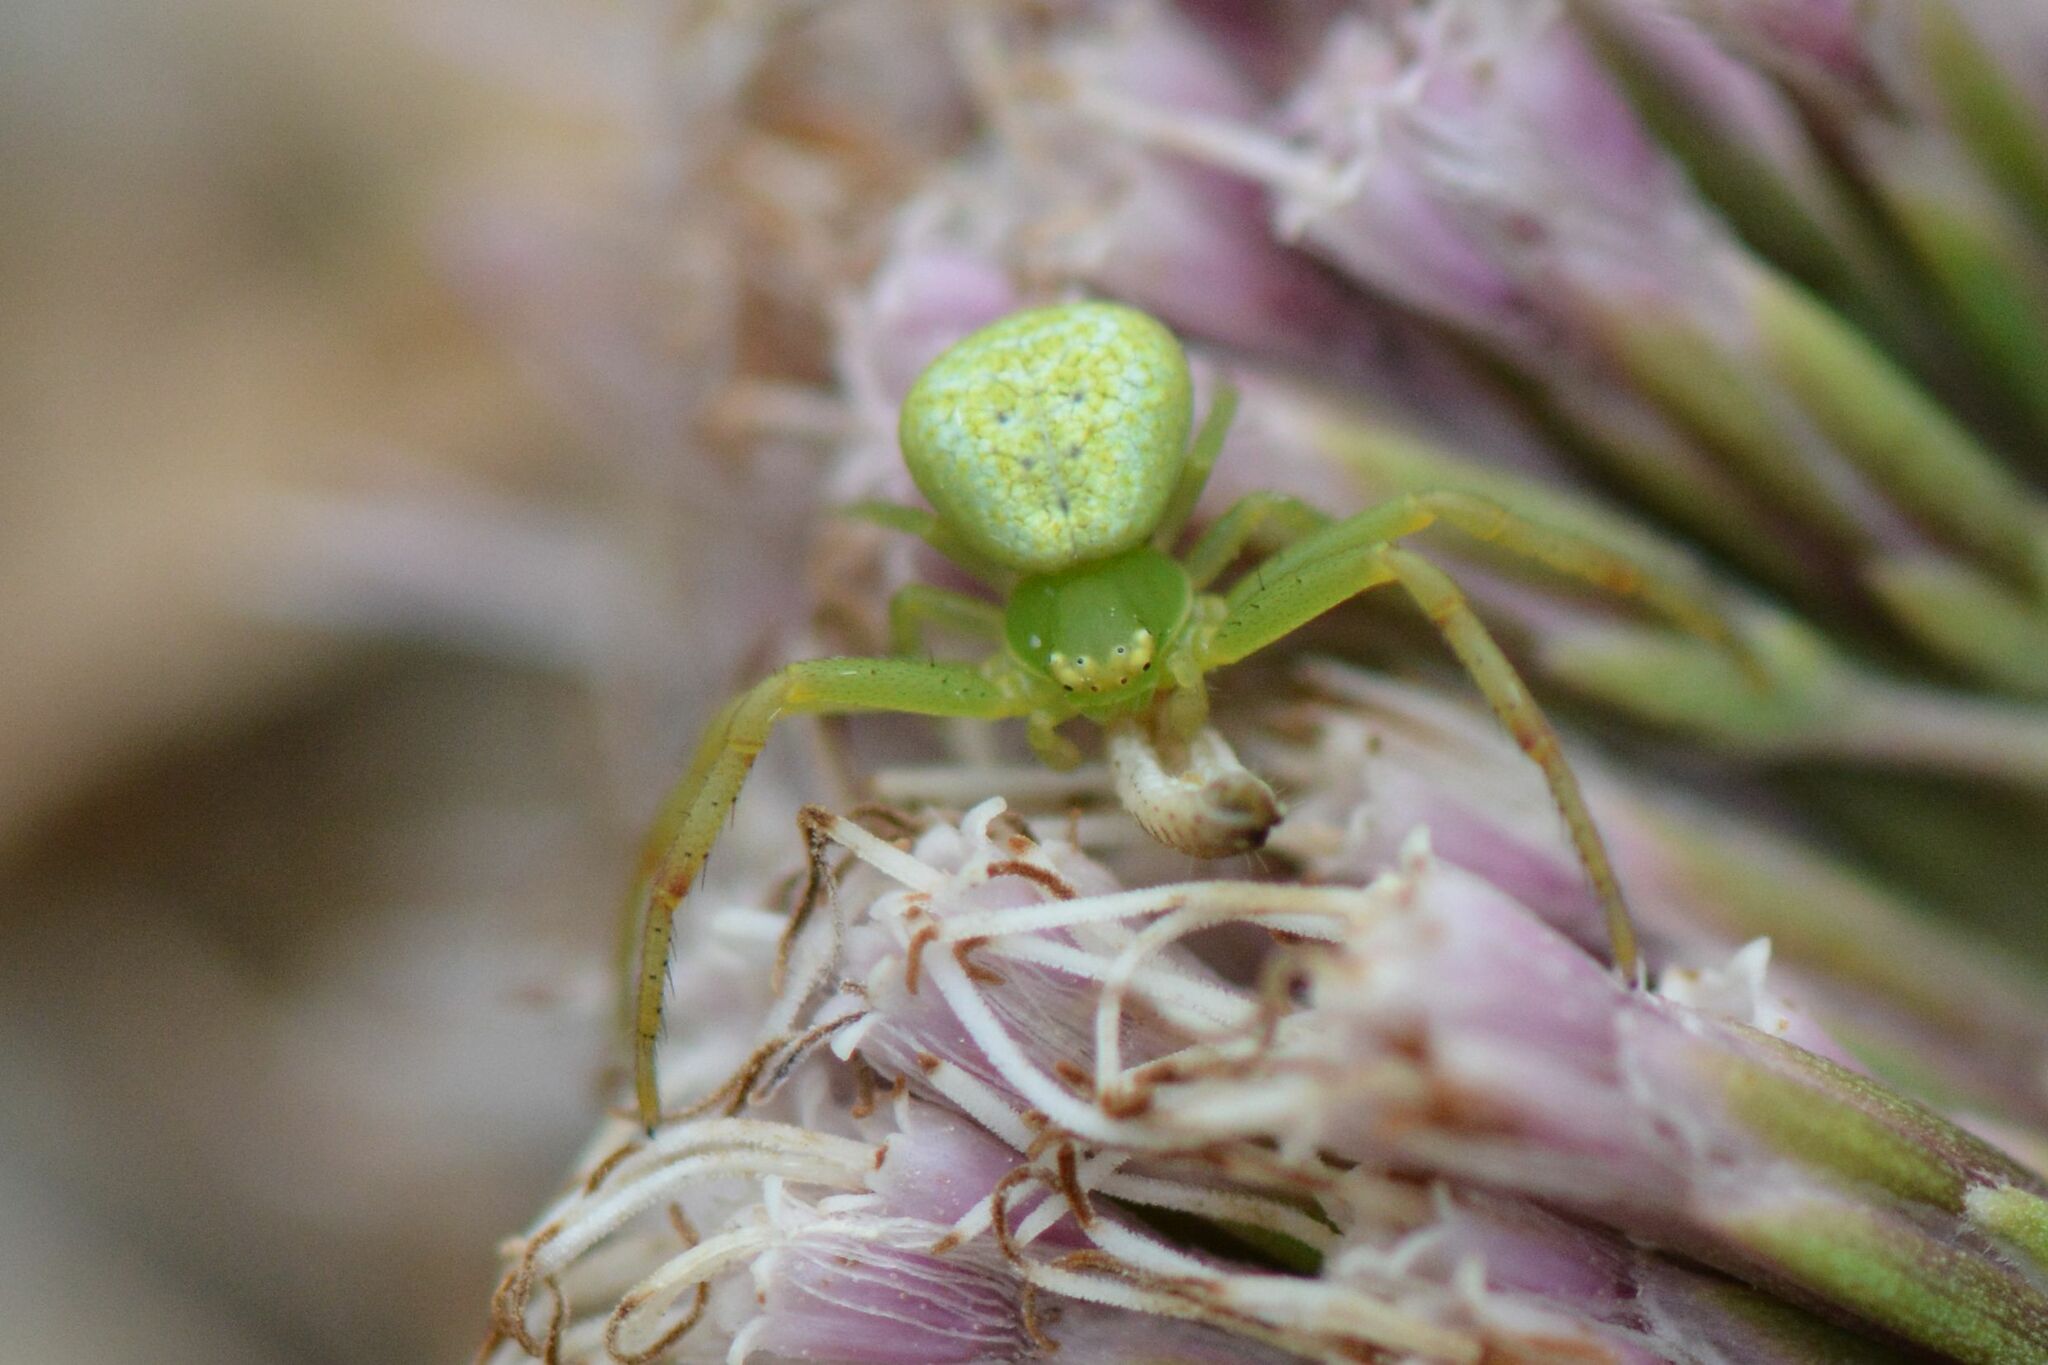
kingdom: Animalia
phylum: Arthropoda
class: Arachnida
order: Araneae
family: Thomisidae
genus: Ebrechtella
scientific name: Ebrechtella tricuspidata
